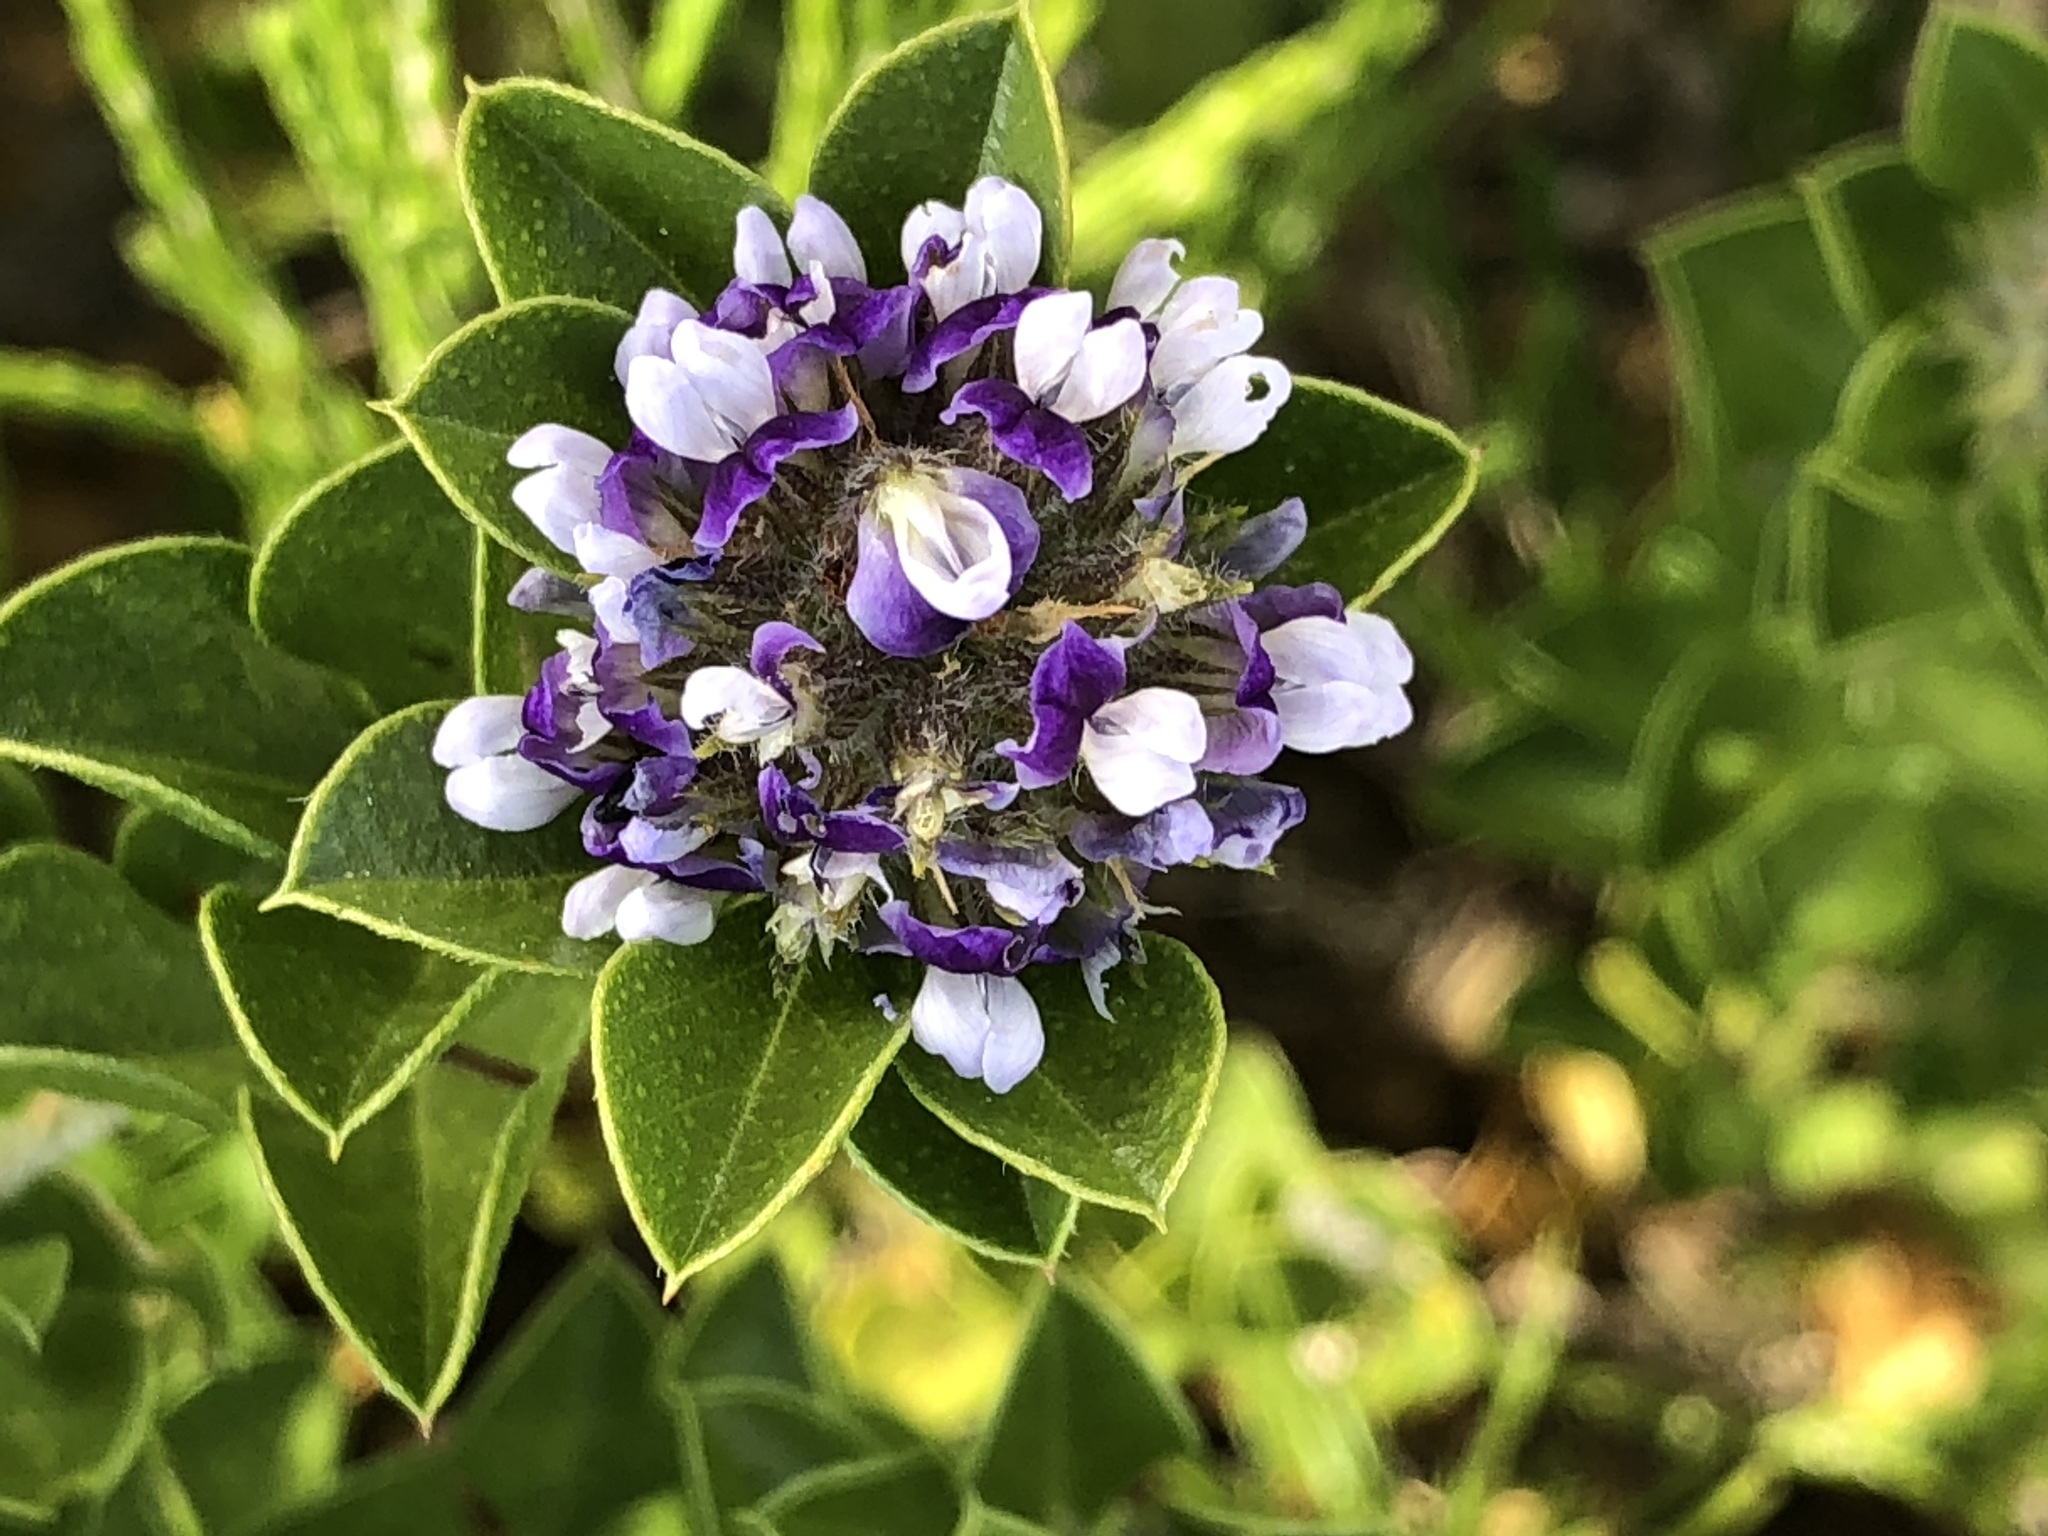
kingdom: Plantae
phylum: Tracheophyta
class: Magnoliopsida
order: Fabales
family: Fabaceae
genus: Psoralea
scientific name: Psoralea bracteolata
